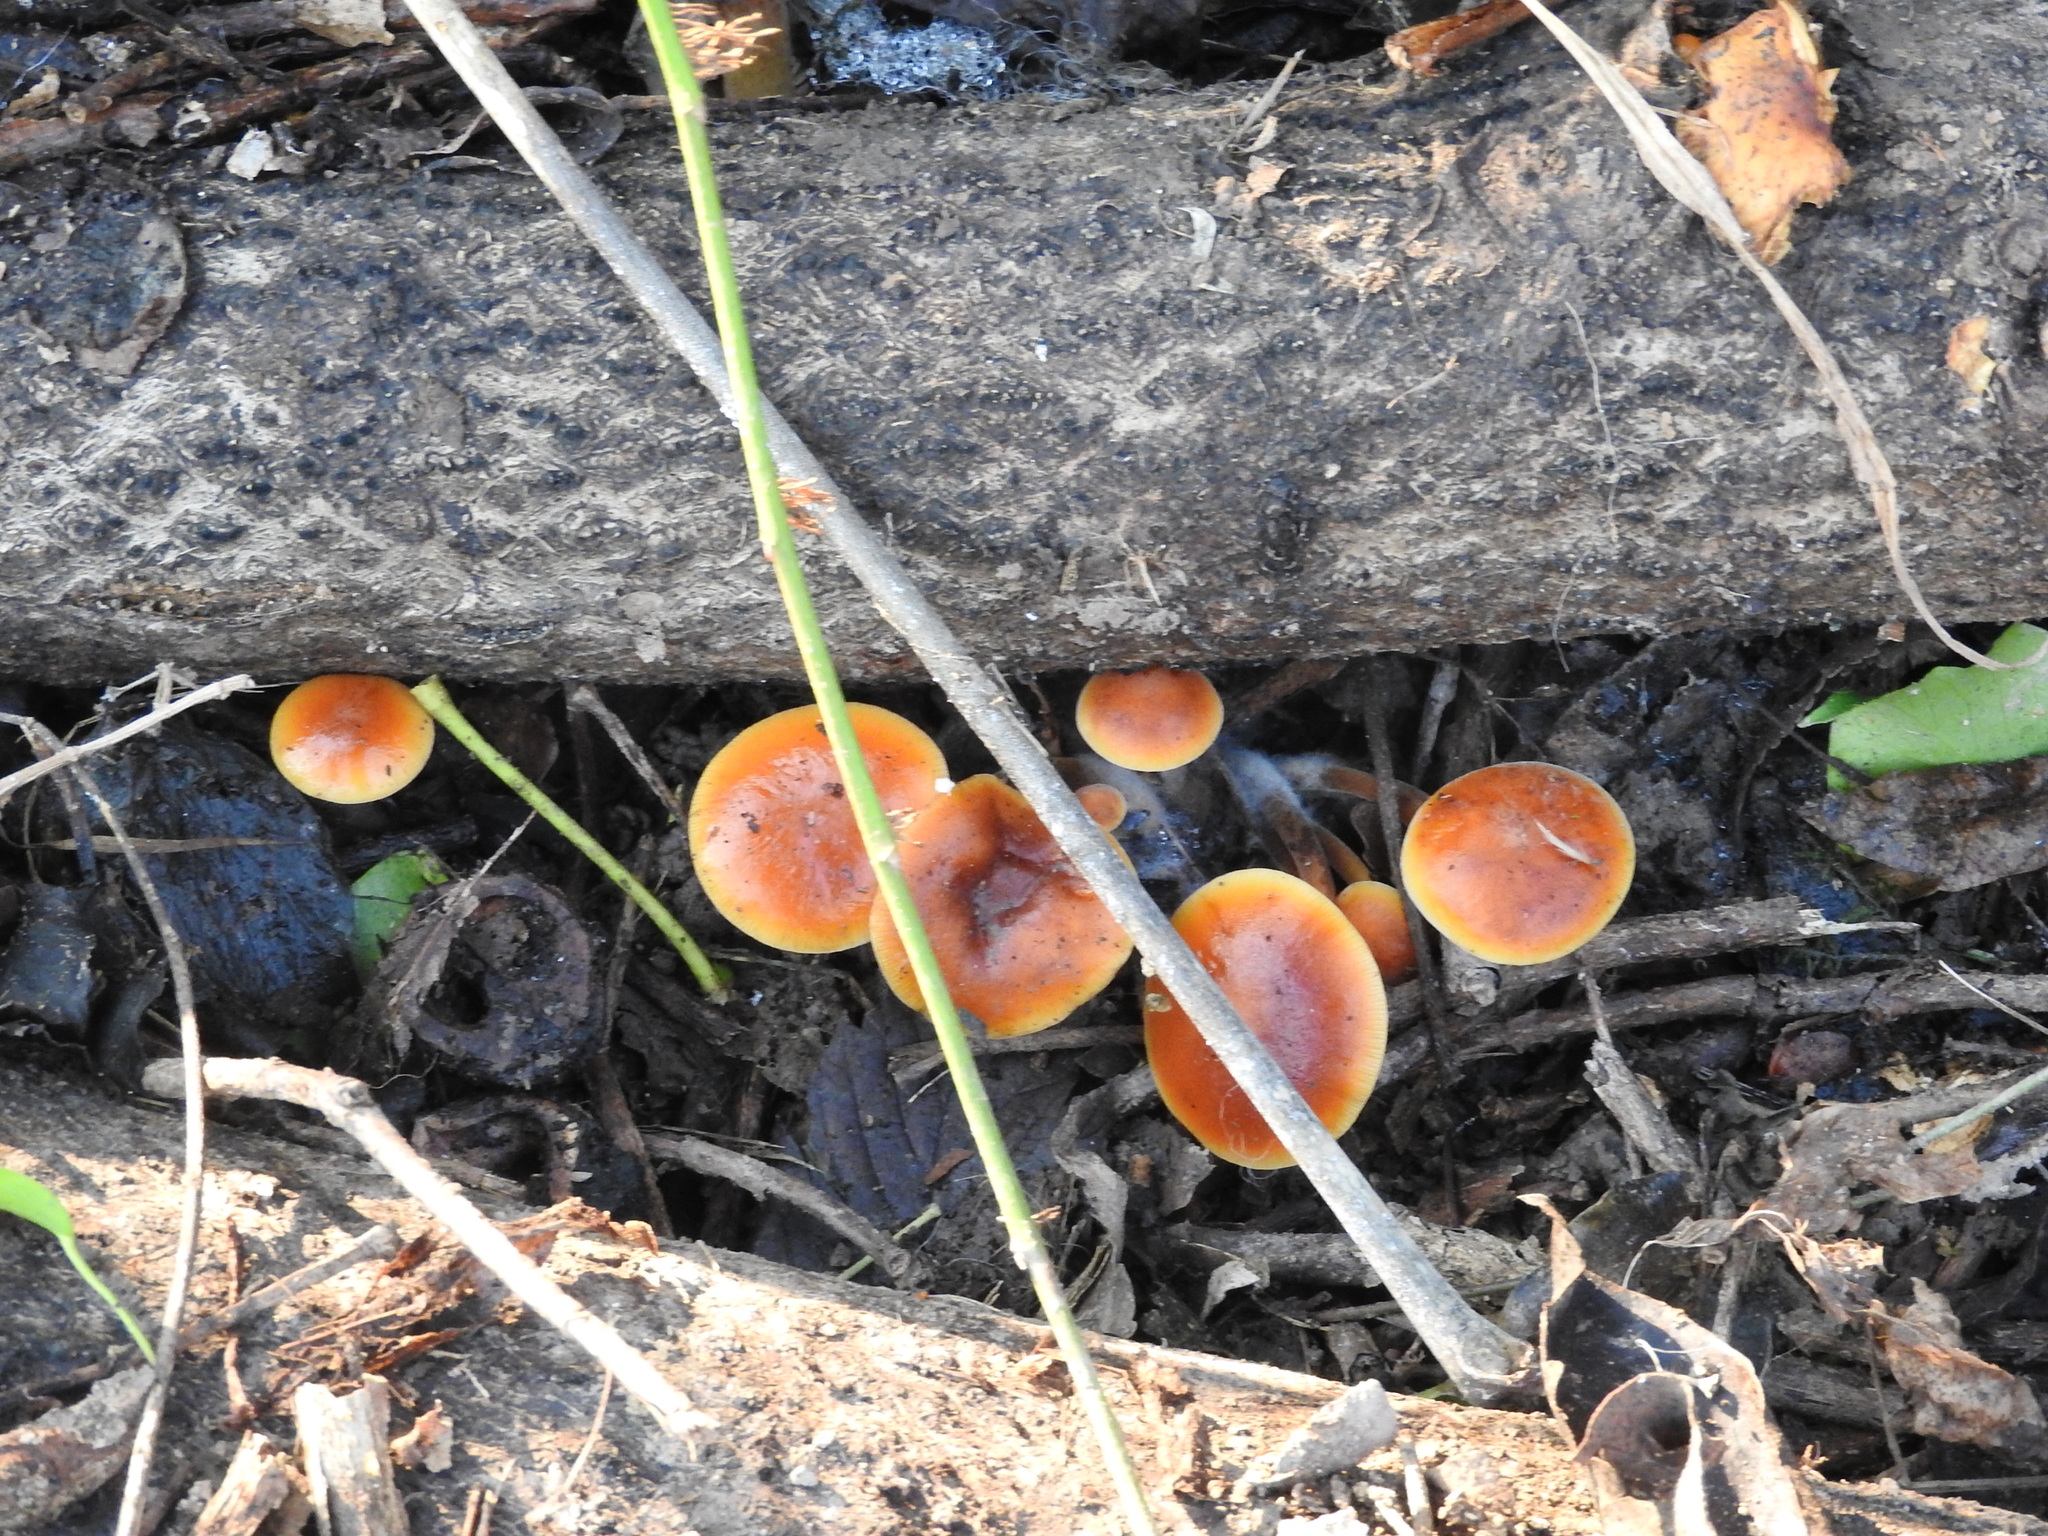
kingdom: Fungi
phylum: Basidiomycota
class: Agaricomycetes
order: Agaricales
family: Physalacriaceae
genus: Flammulina
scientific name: Flammulina
